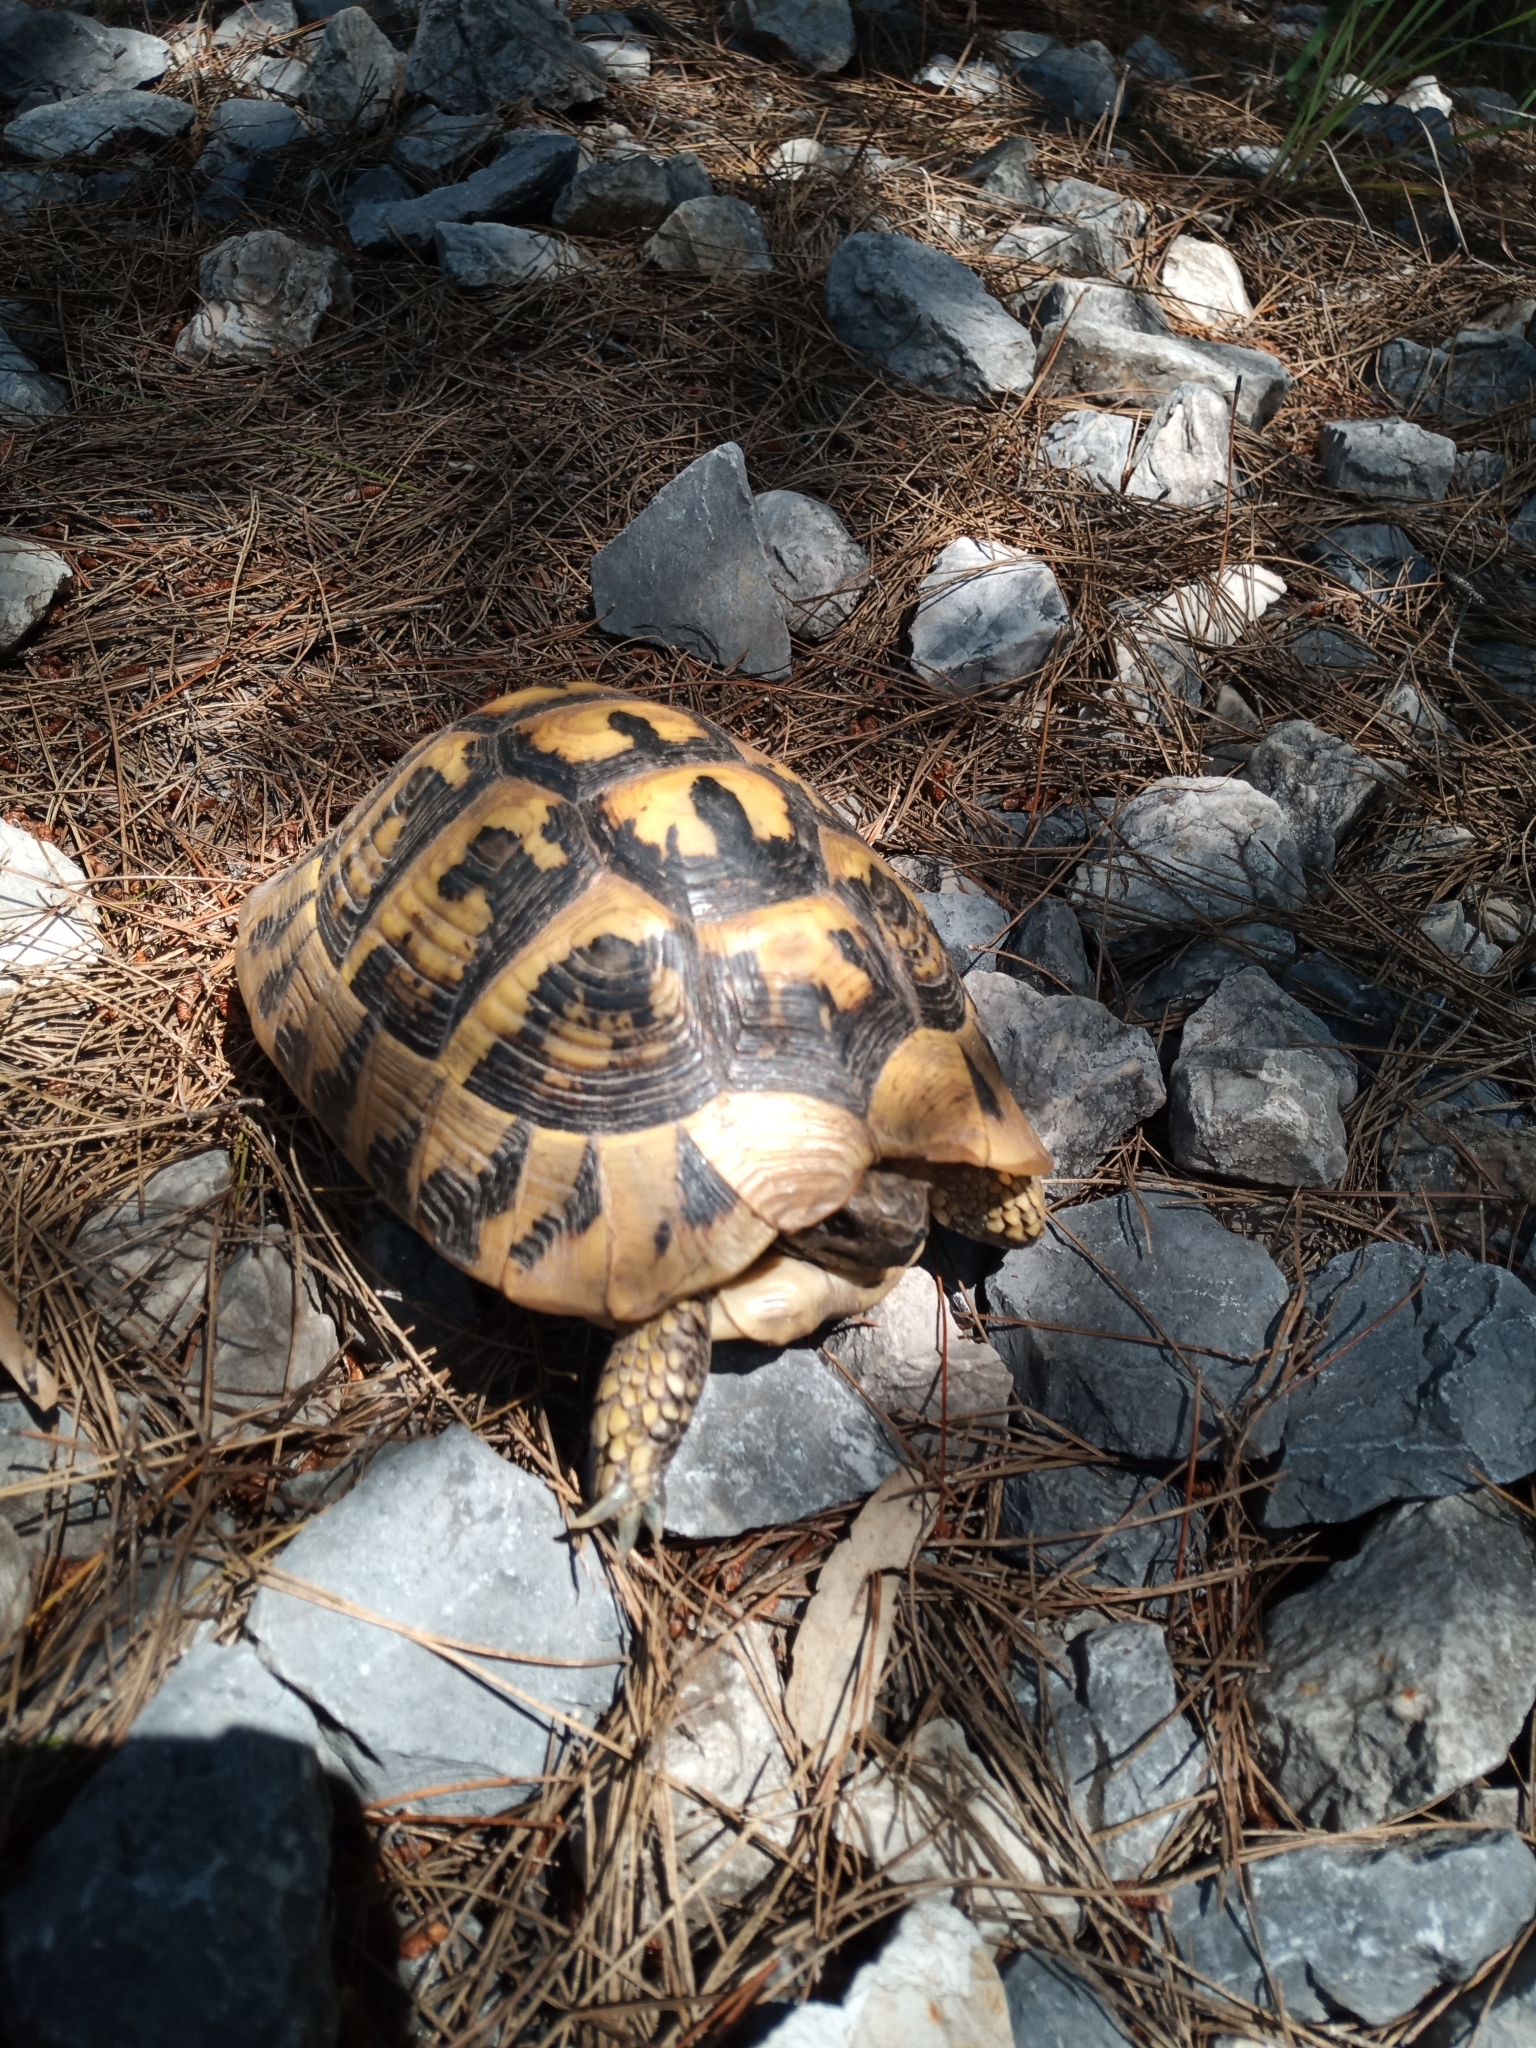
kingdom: Animalia
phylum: Chordata
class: Testudines
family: Testudinidae
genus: Testudo
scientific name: Testudo hermanni
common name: Hermann's tortoise
